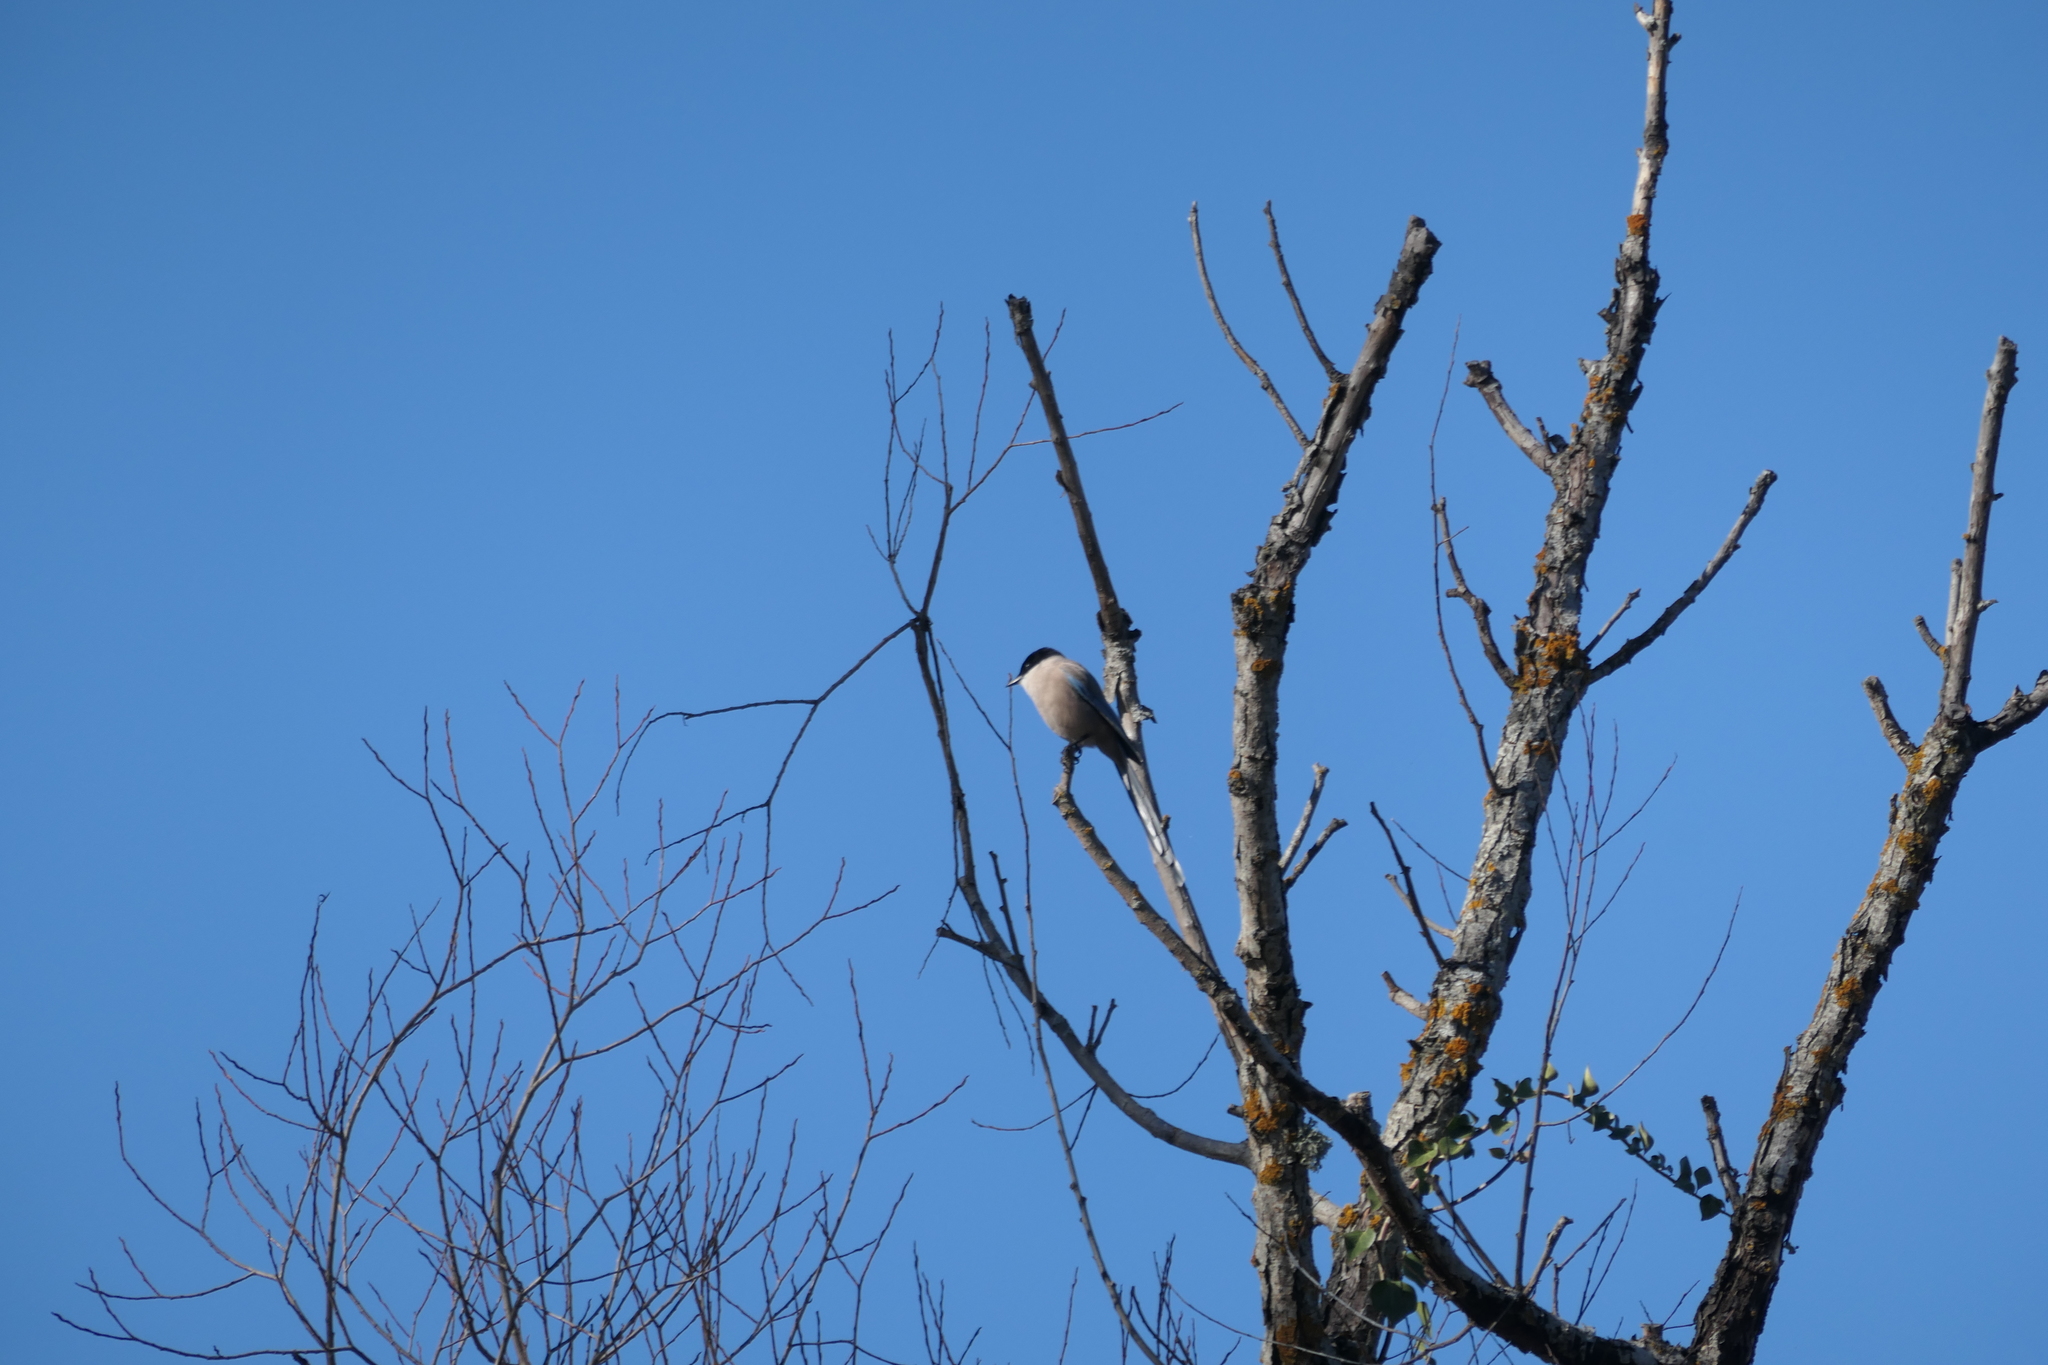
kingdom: Animalia
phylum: Chordata
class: Aves
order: Passeriformes
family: Corvidae
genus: Cyanopica
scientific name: Cyanopica cooki
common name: Iberian magpie
